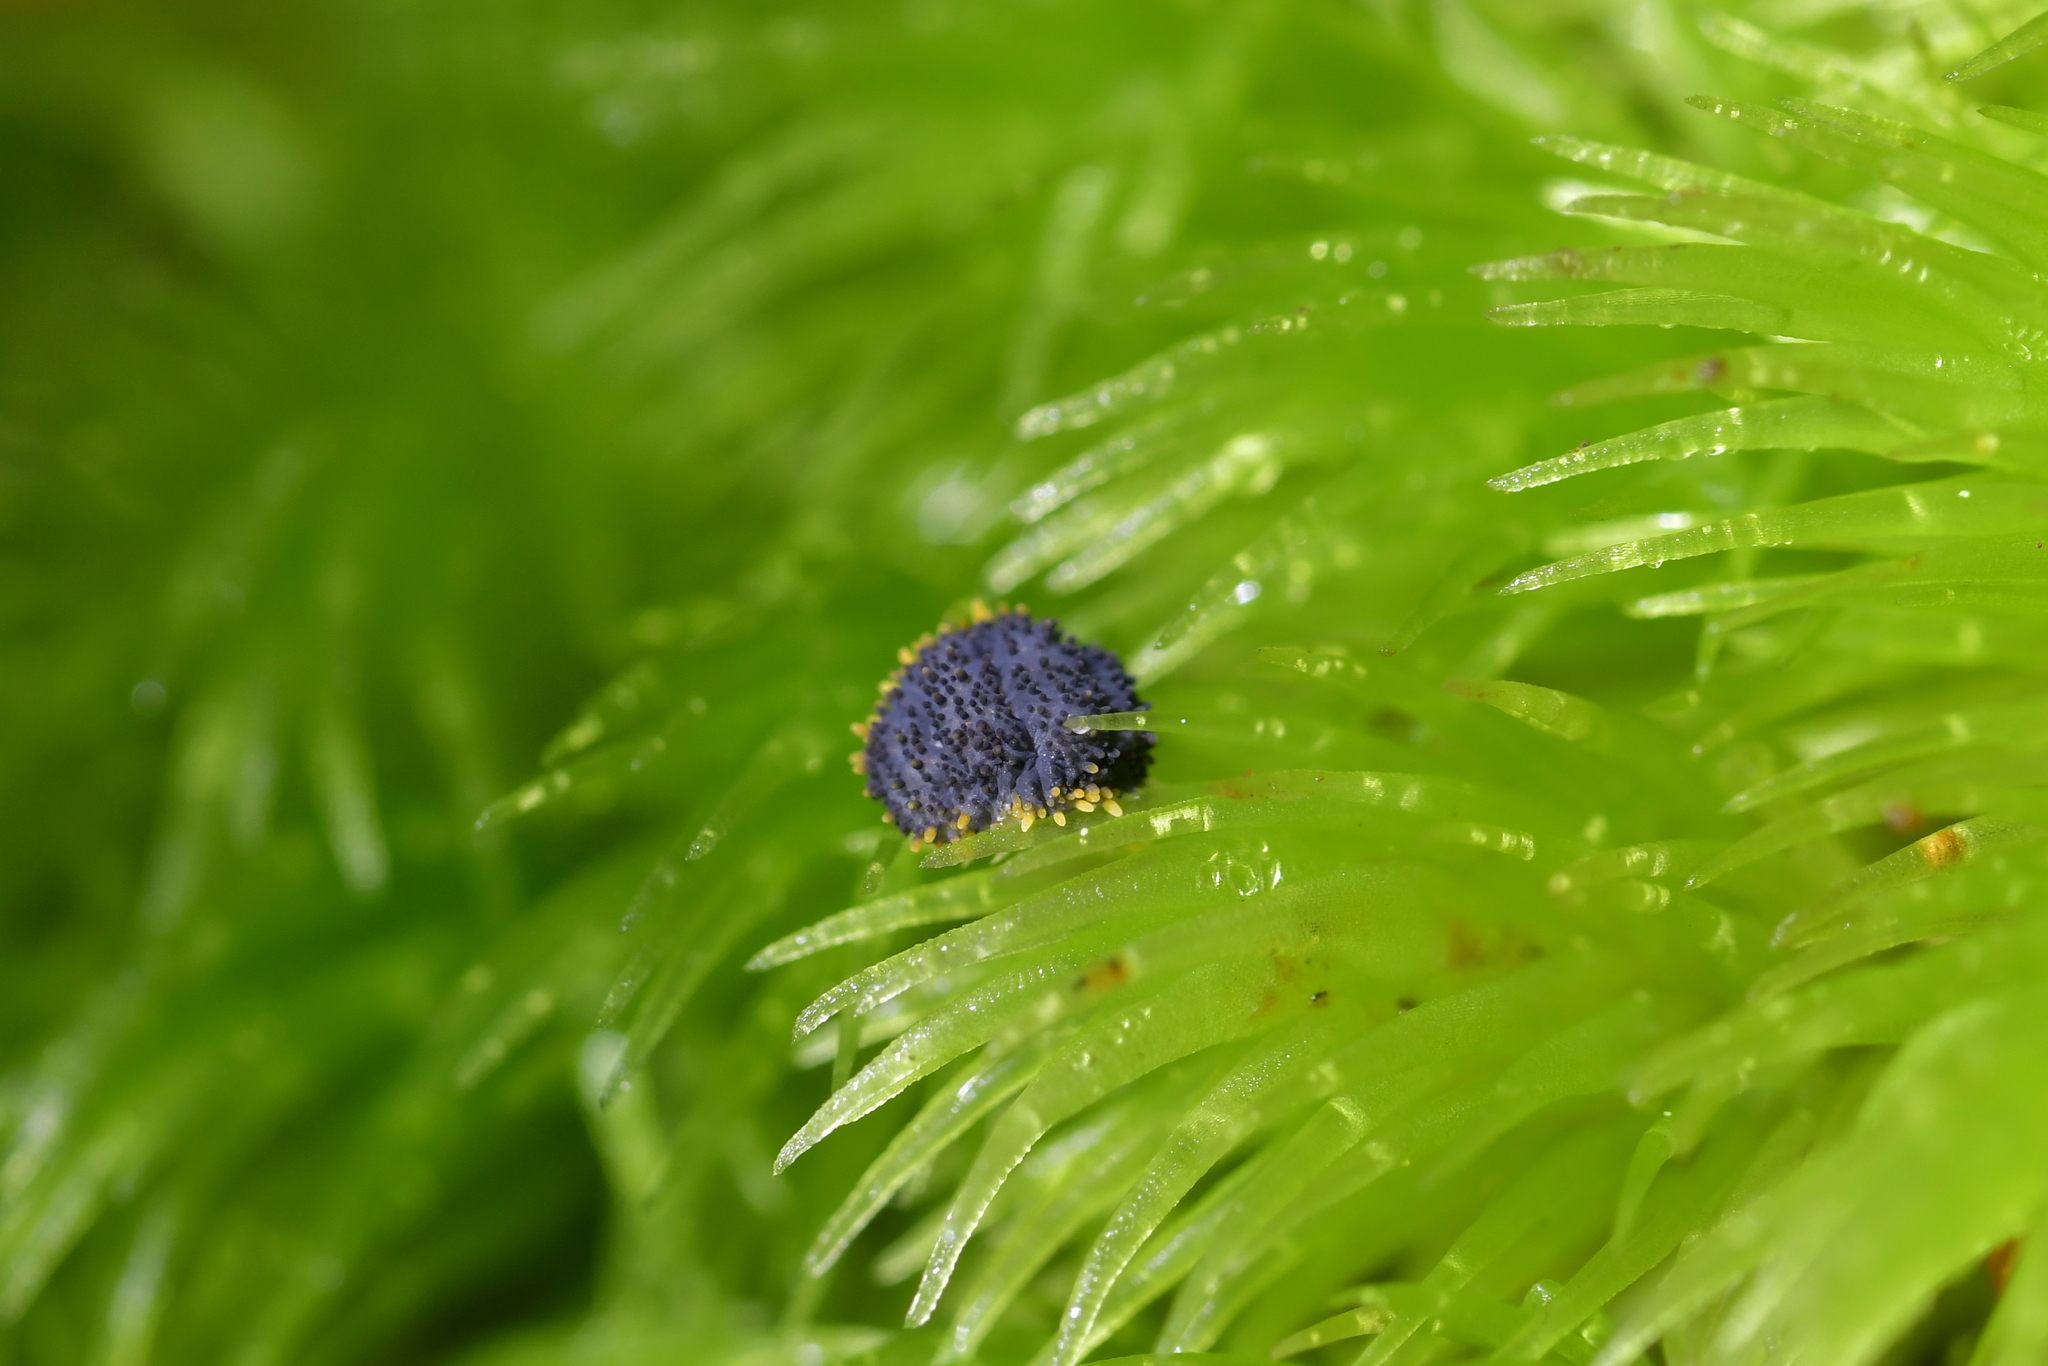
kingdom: Animalia
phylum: Arthropoda
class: Collembola
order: Poduromorpha
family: Neanuridae
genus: Holacanthella
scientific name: Holacanthella laterospinosa
